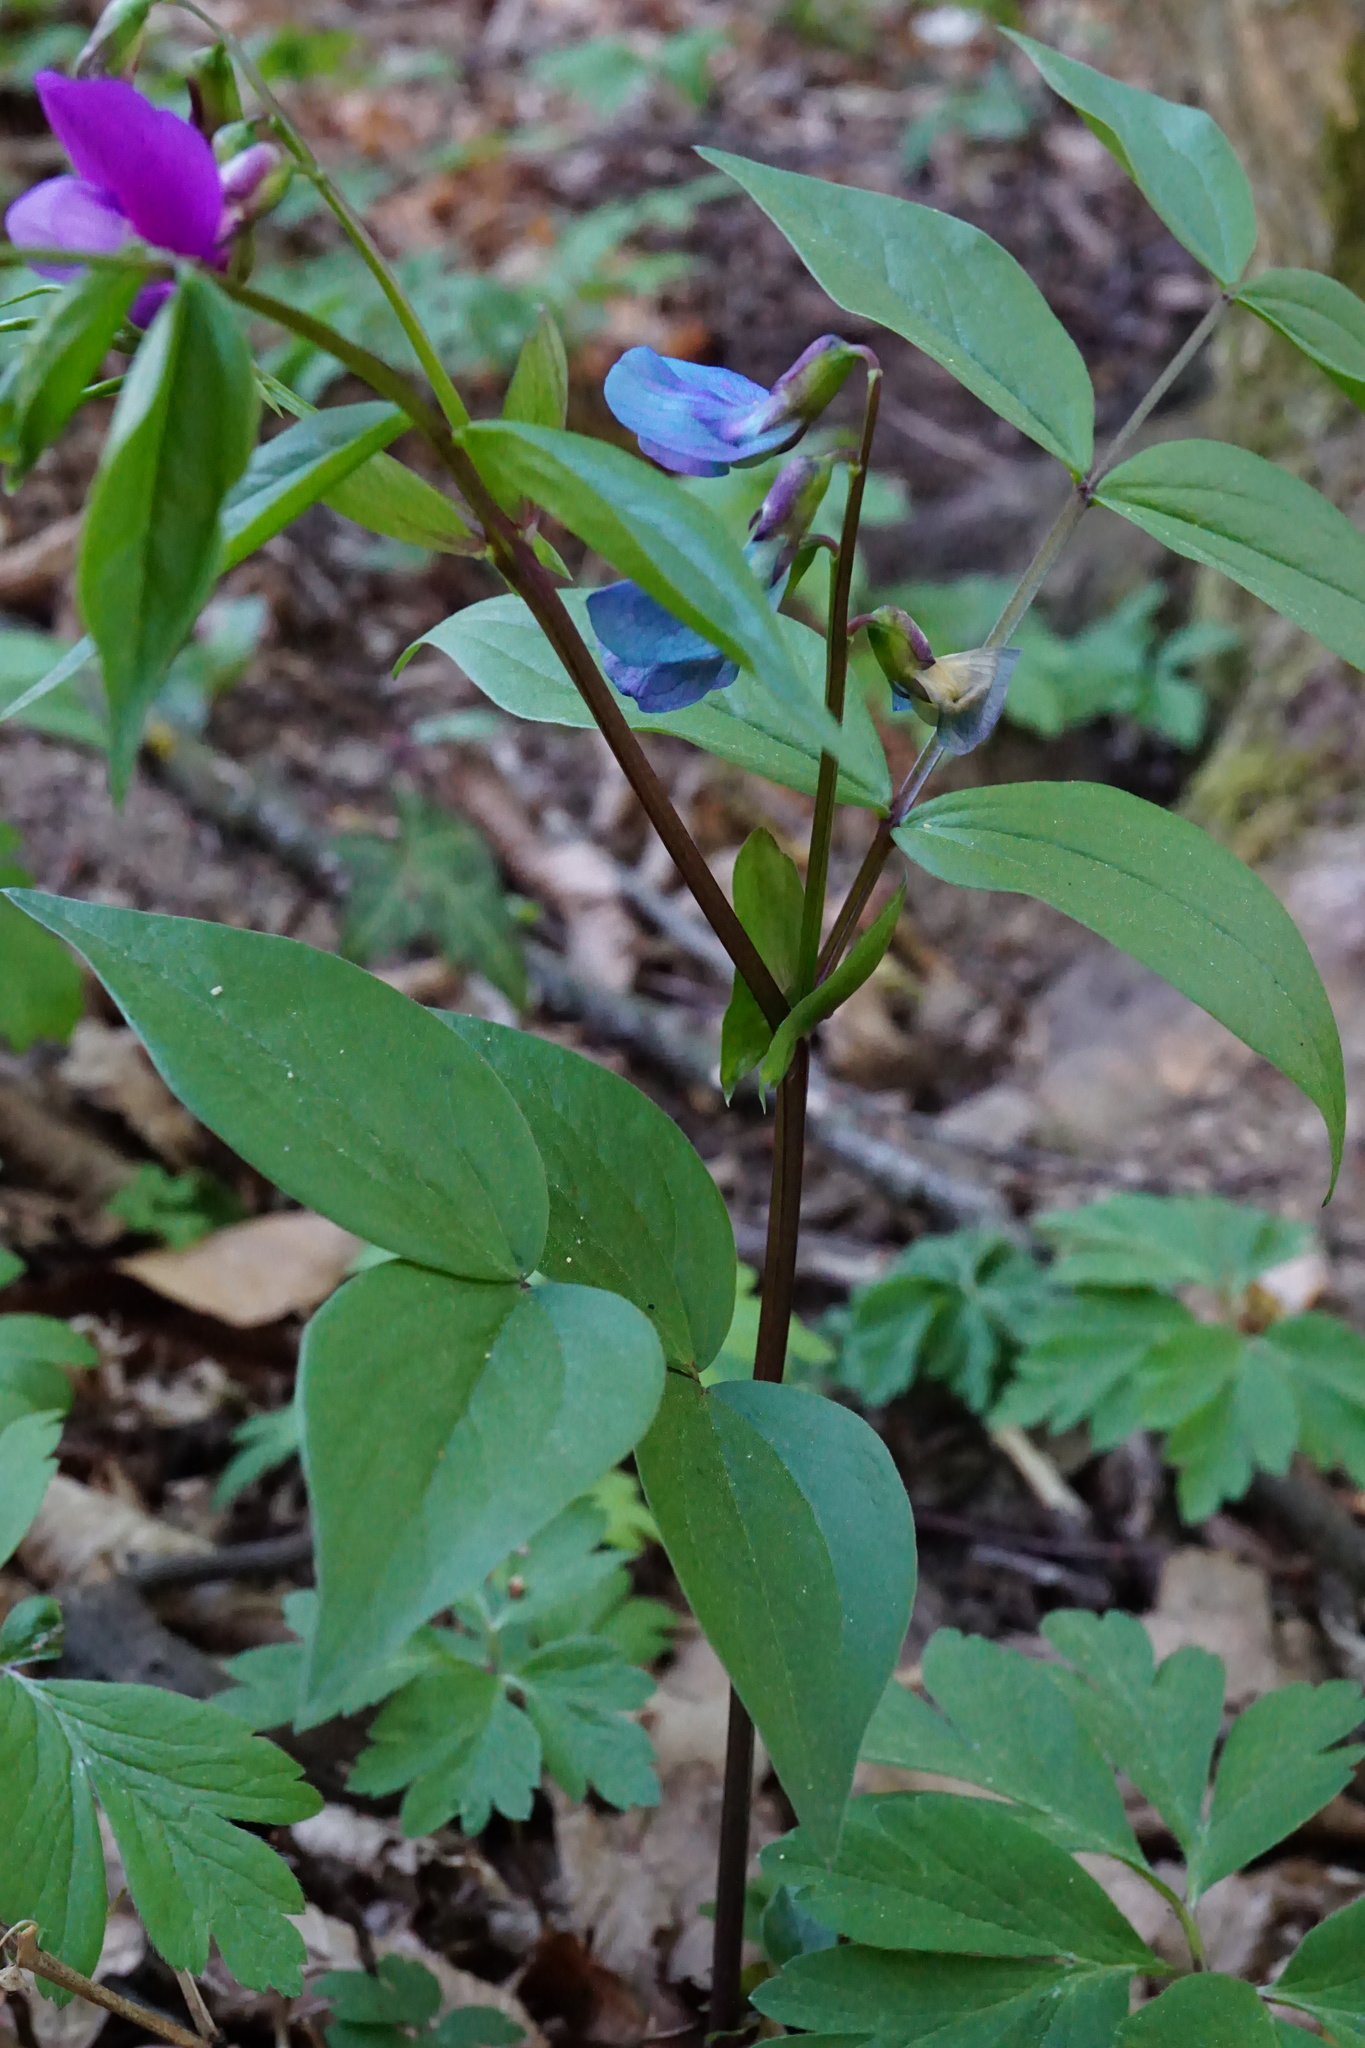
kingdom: Plantae
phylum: Tracheophyta
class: Magnoliopsida
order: Fabales
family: Fabaceae
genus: Lathyrus
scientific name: Lathyrus vernus
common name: Spring pea
